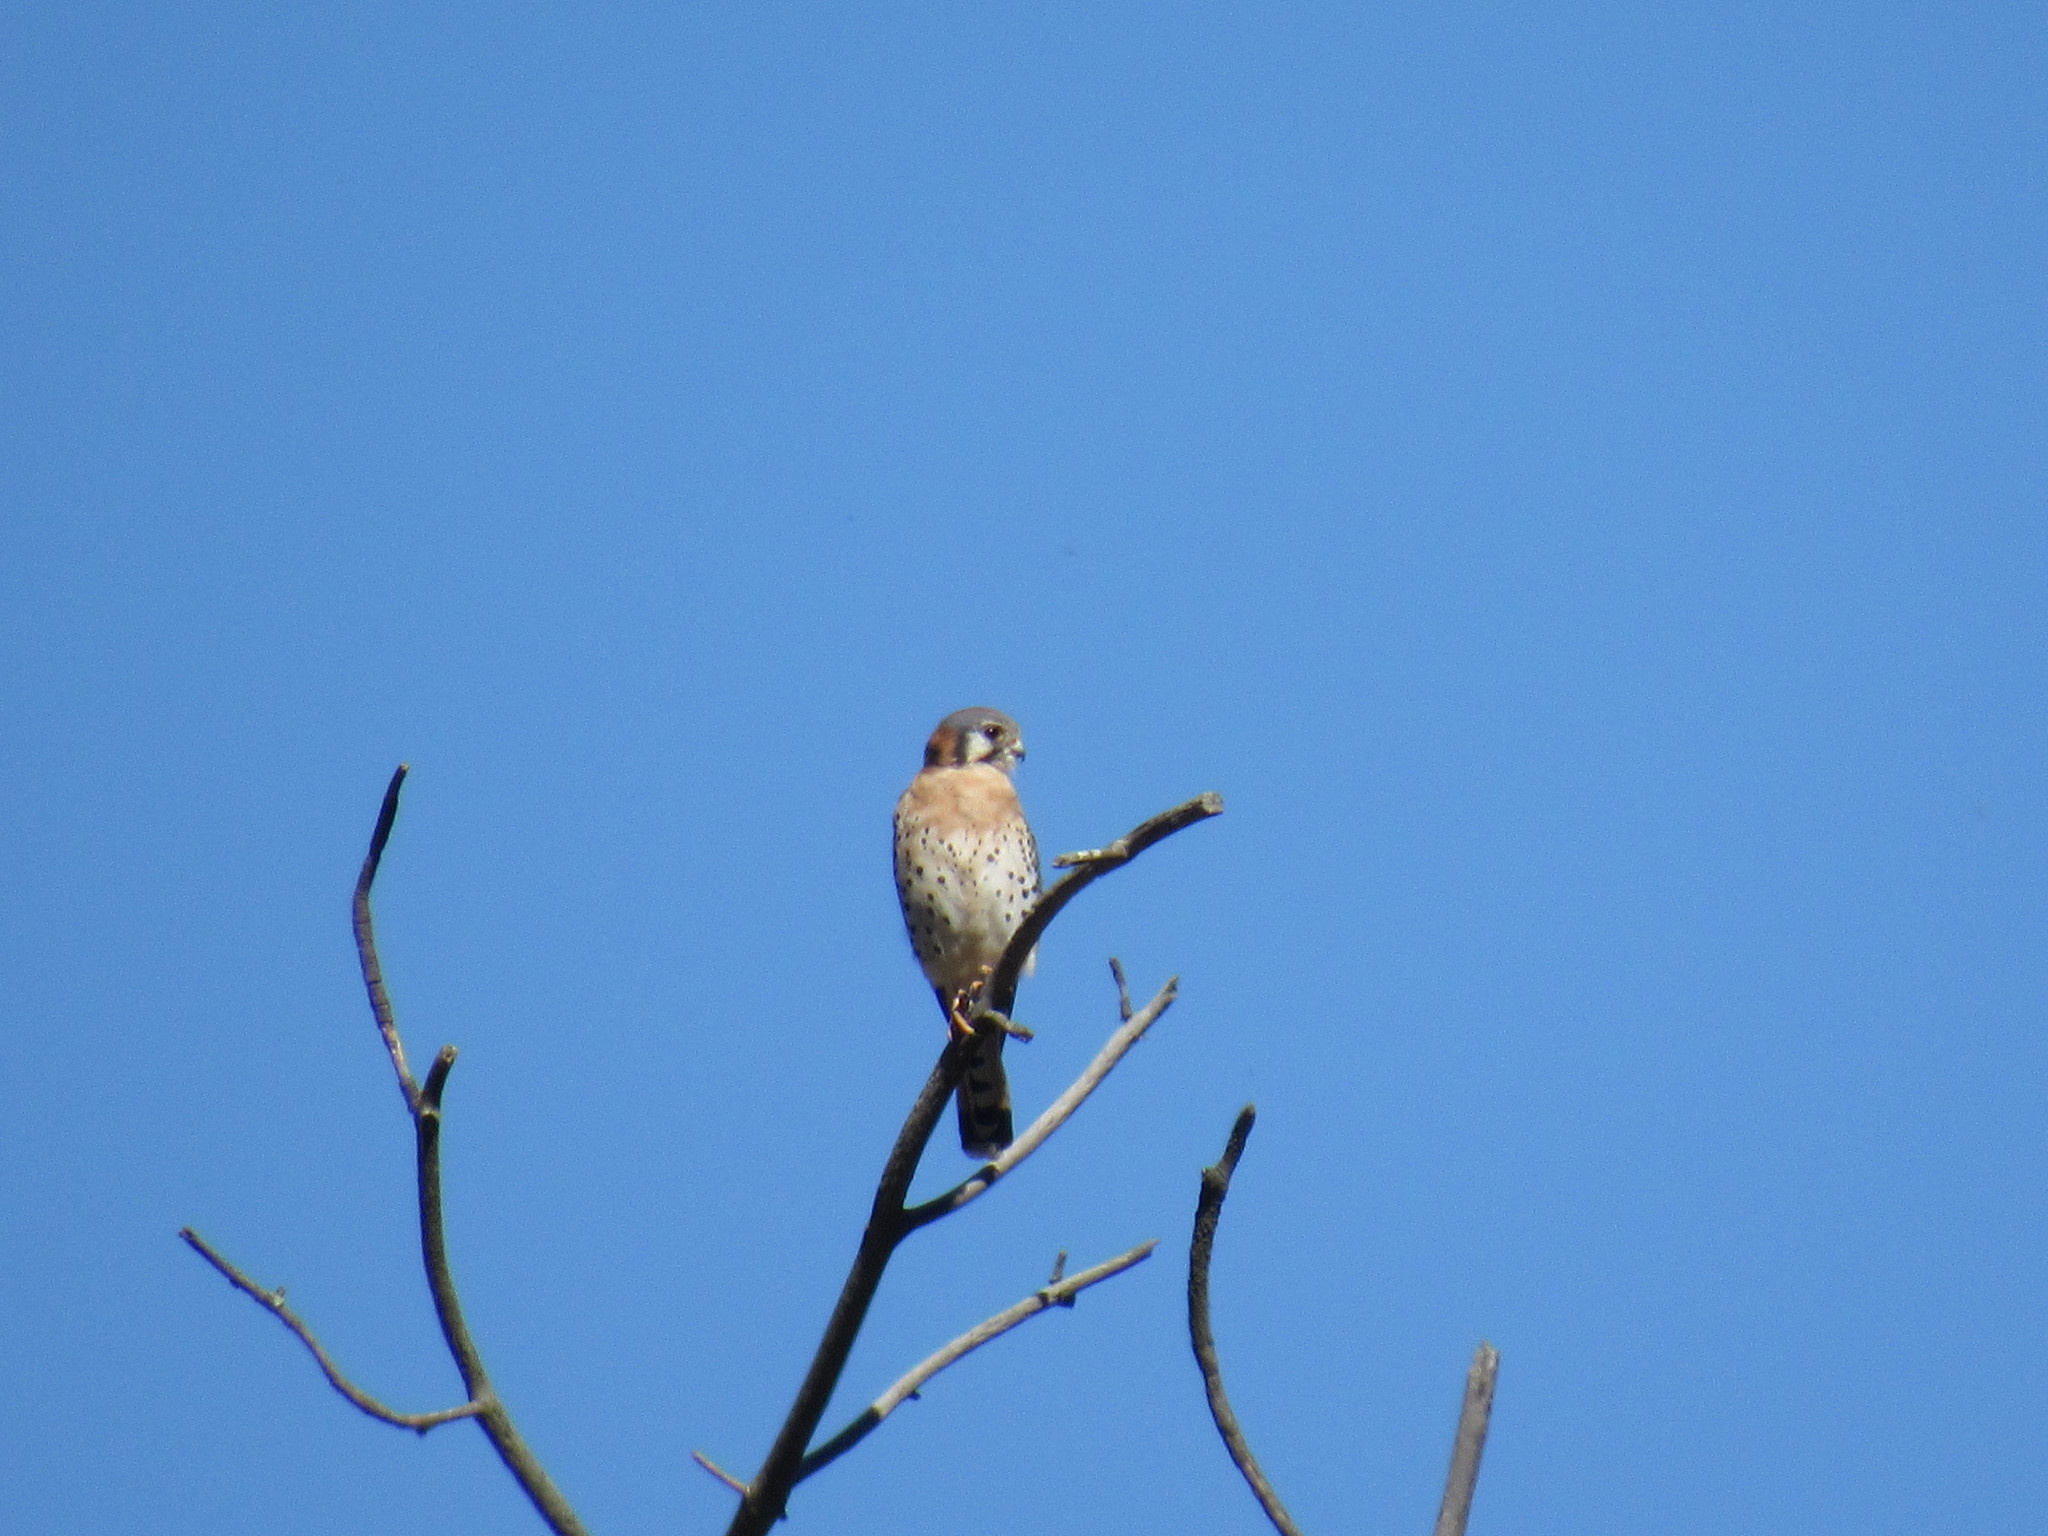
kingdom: Animalia
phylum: Chordata
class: Aves
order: Falconiformes
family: Falconidae
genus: Falco
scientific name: Falco sparverius
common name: American kestrel
